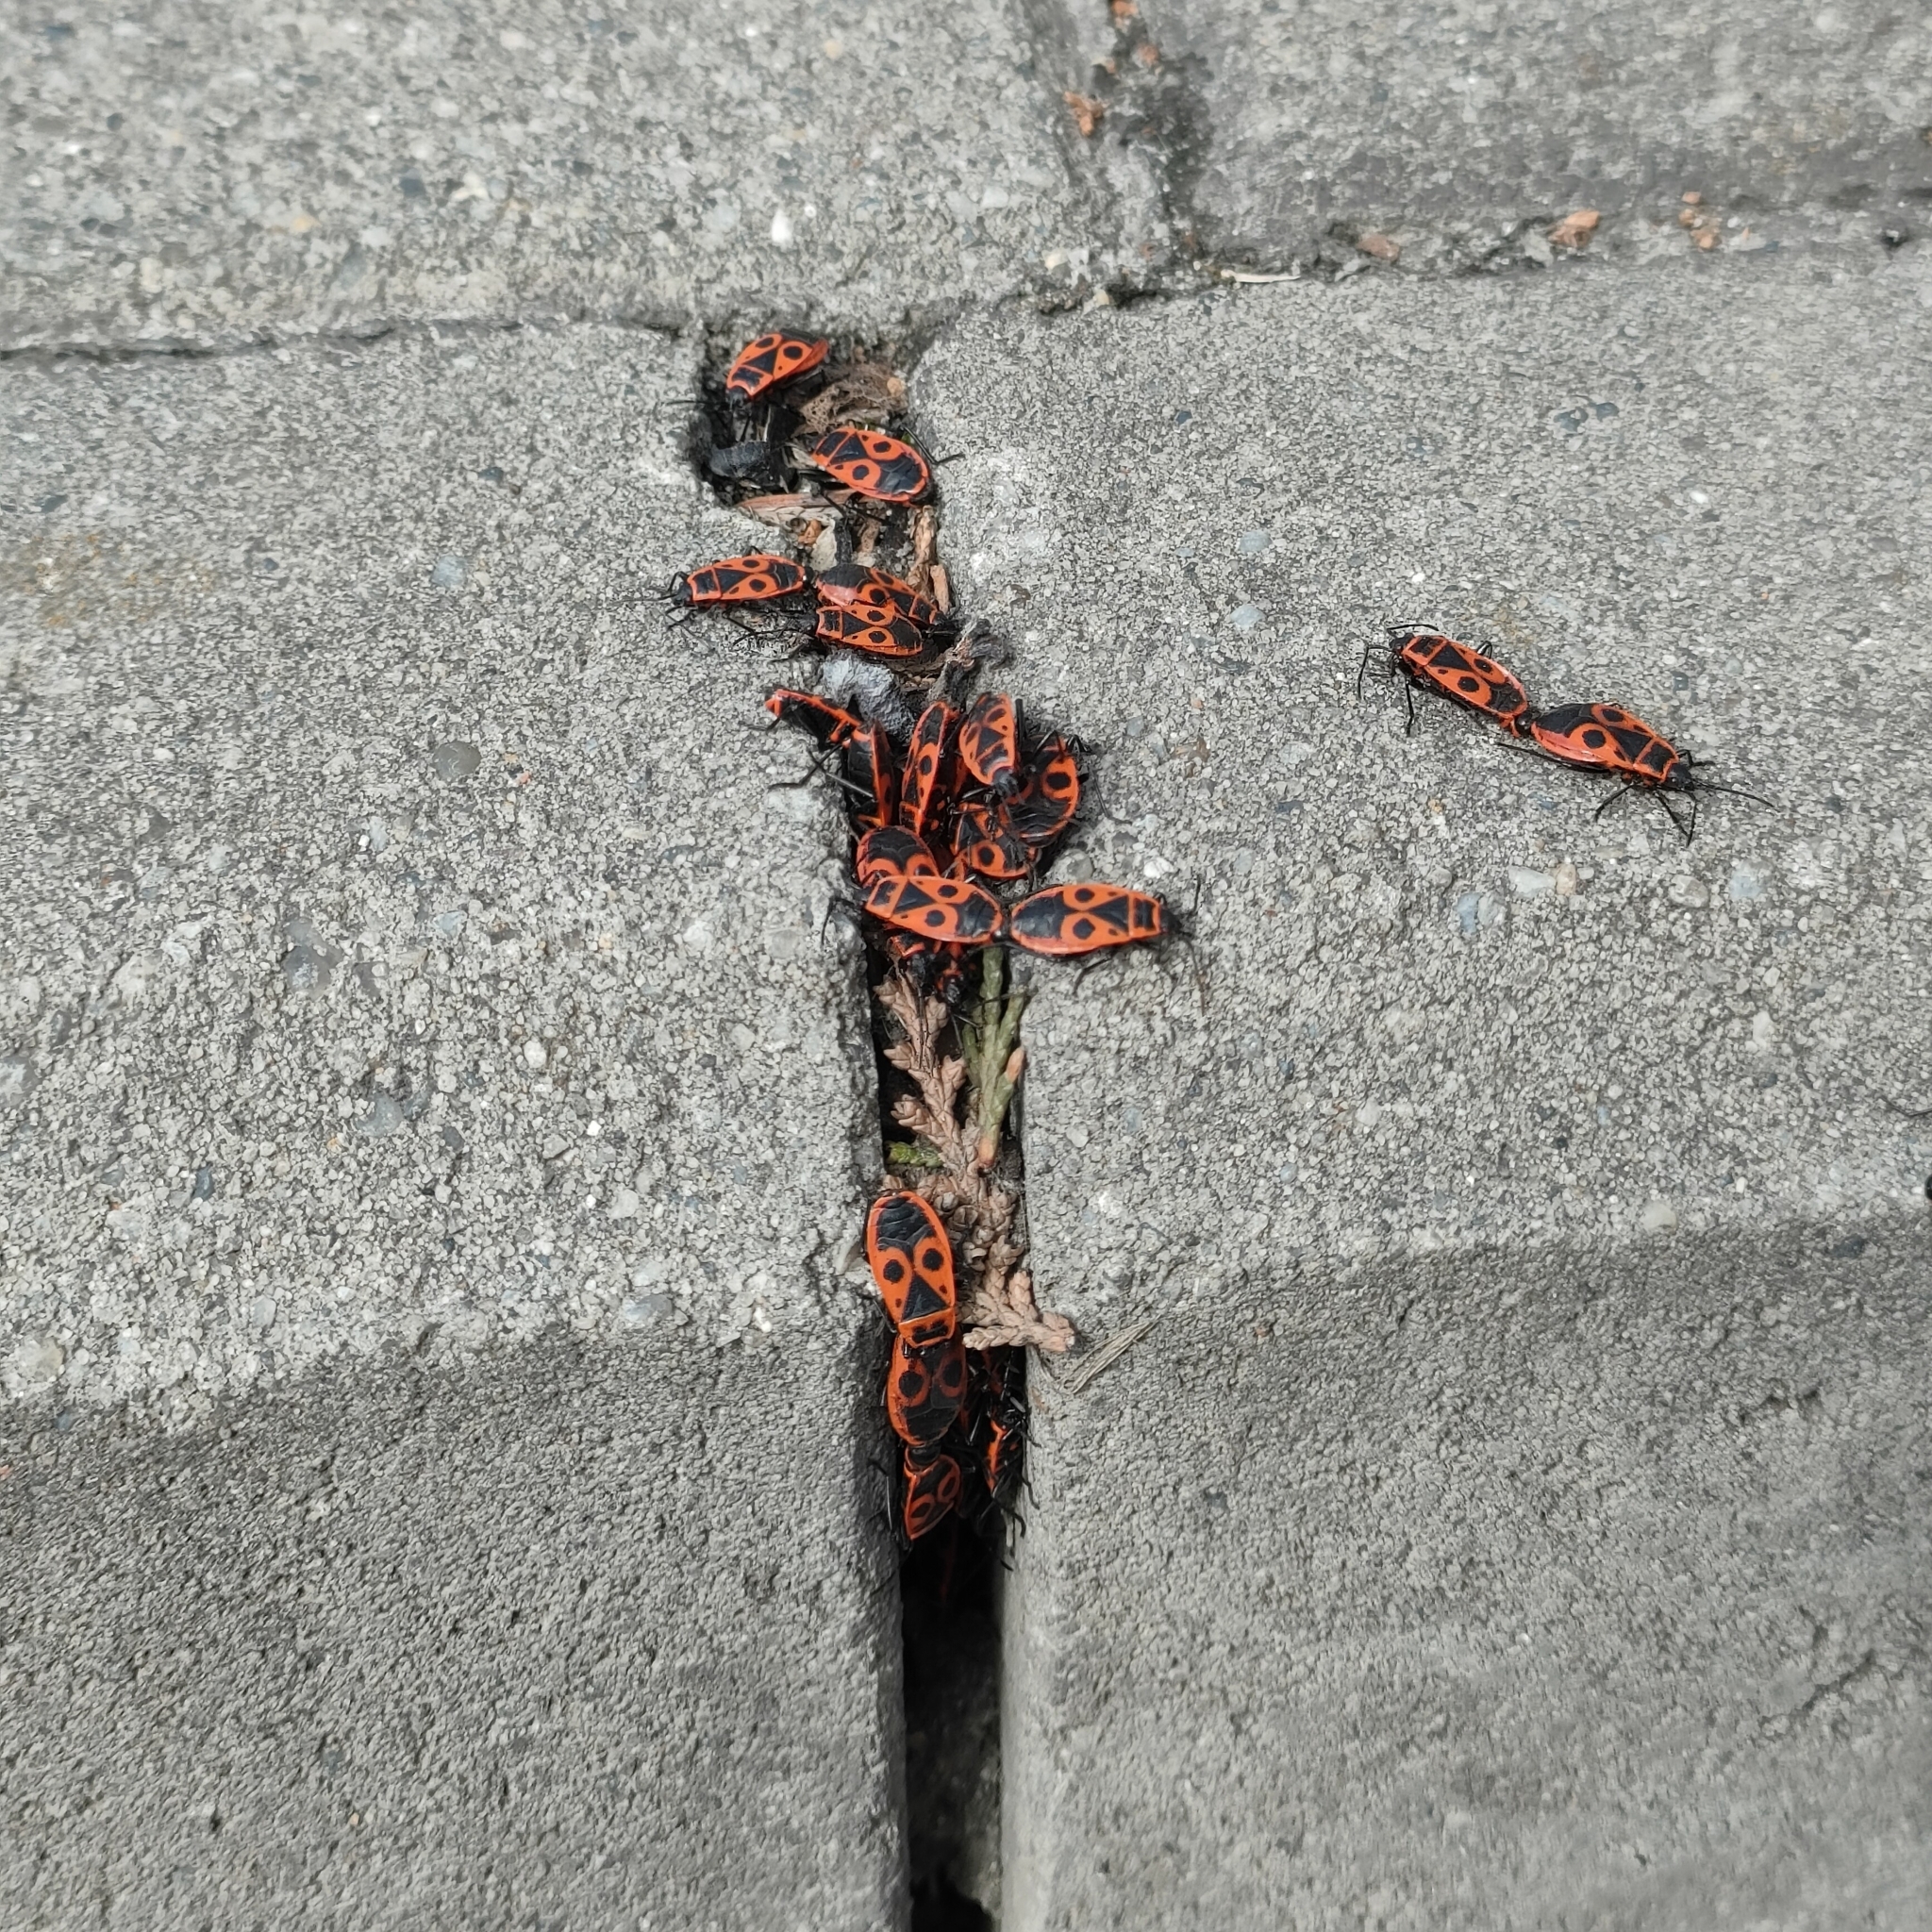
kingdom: Animalia
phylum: Arthropoda
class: Insecta
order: Hemiptera
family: Pyrrhocoridae
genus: Pyrrhocoris
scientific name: Pyrrhocoris apterus
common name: Firebug
